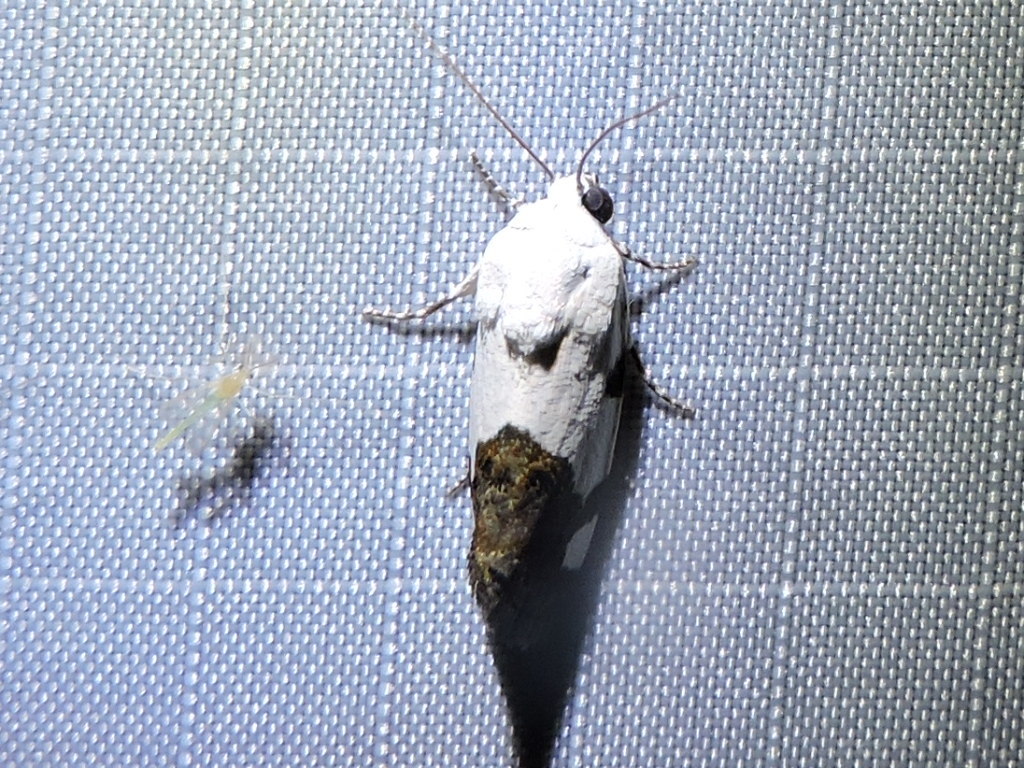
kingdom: Animalia
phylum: Arthropoda
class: Insecta
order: Lepidoptera
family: Noctuidae
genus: Acontia
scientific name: Acontia quadriplaga
